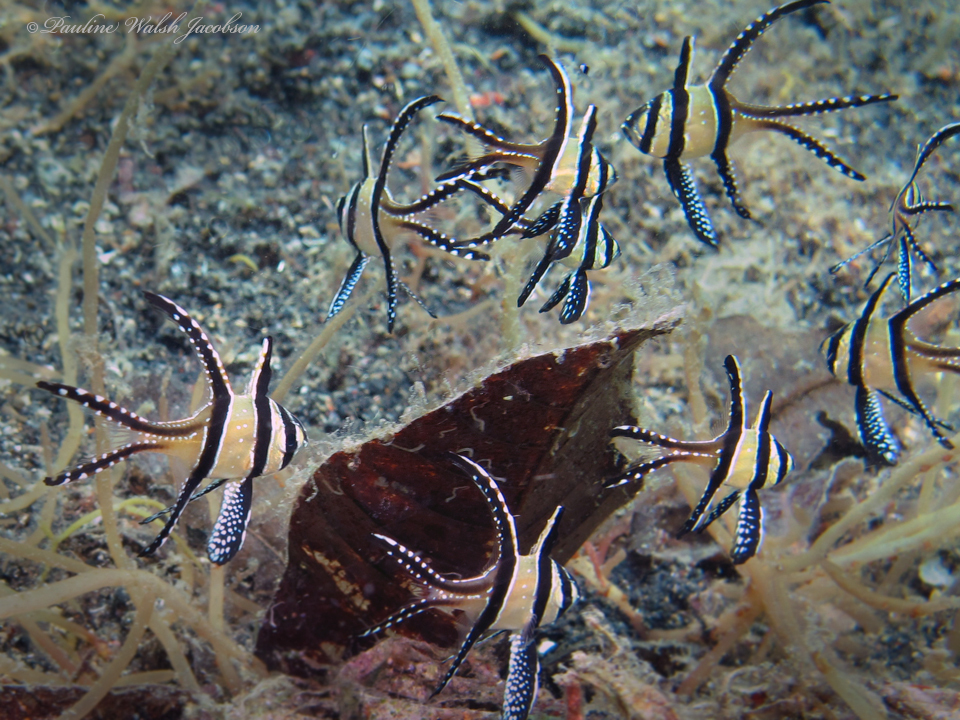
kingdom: Animalia
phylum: Chordata
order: Perciformes
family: Apogonidae
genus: Pterapogon
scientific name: Pterapogon kauderni
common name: Banggai cardinalfish
